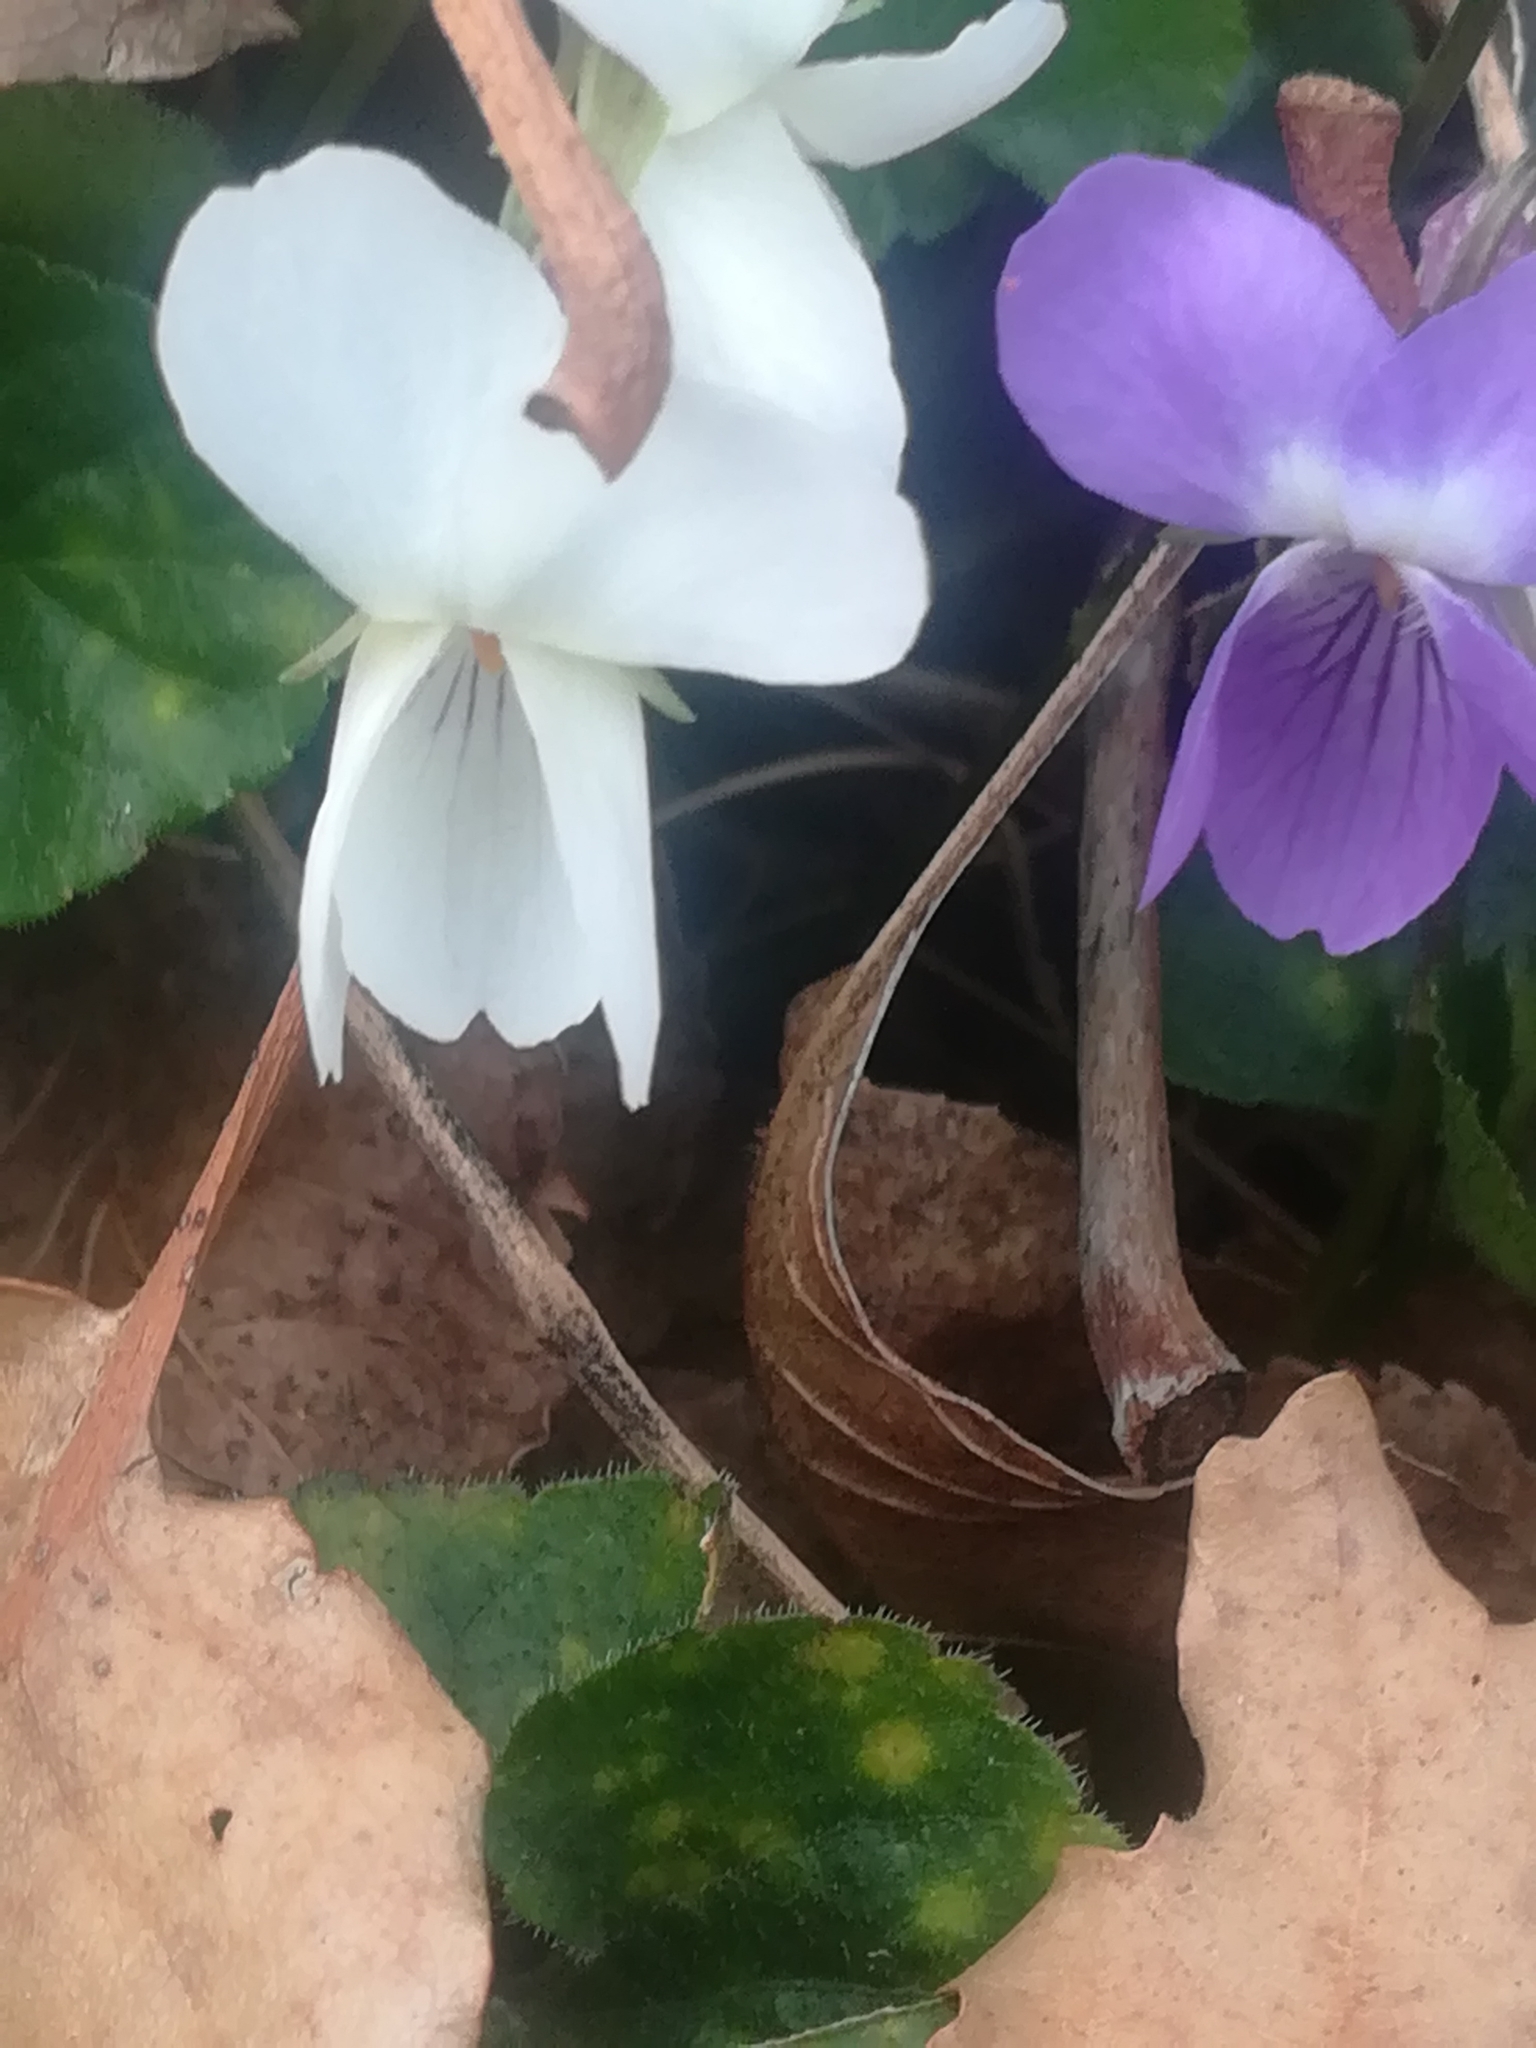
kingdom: Plantae
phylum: Tracheophyta
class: Magnoliopsida
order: Malpighiales
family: Violaceae
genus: Viola
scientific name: Viola alba
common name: White violet
